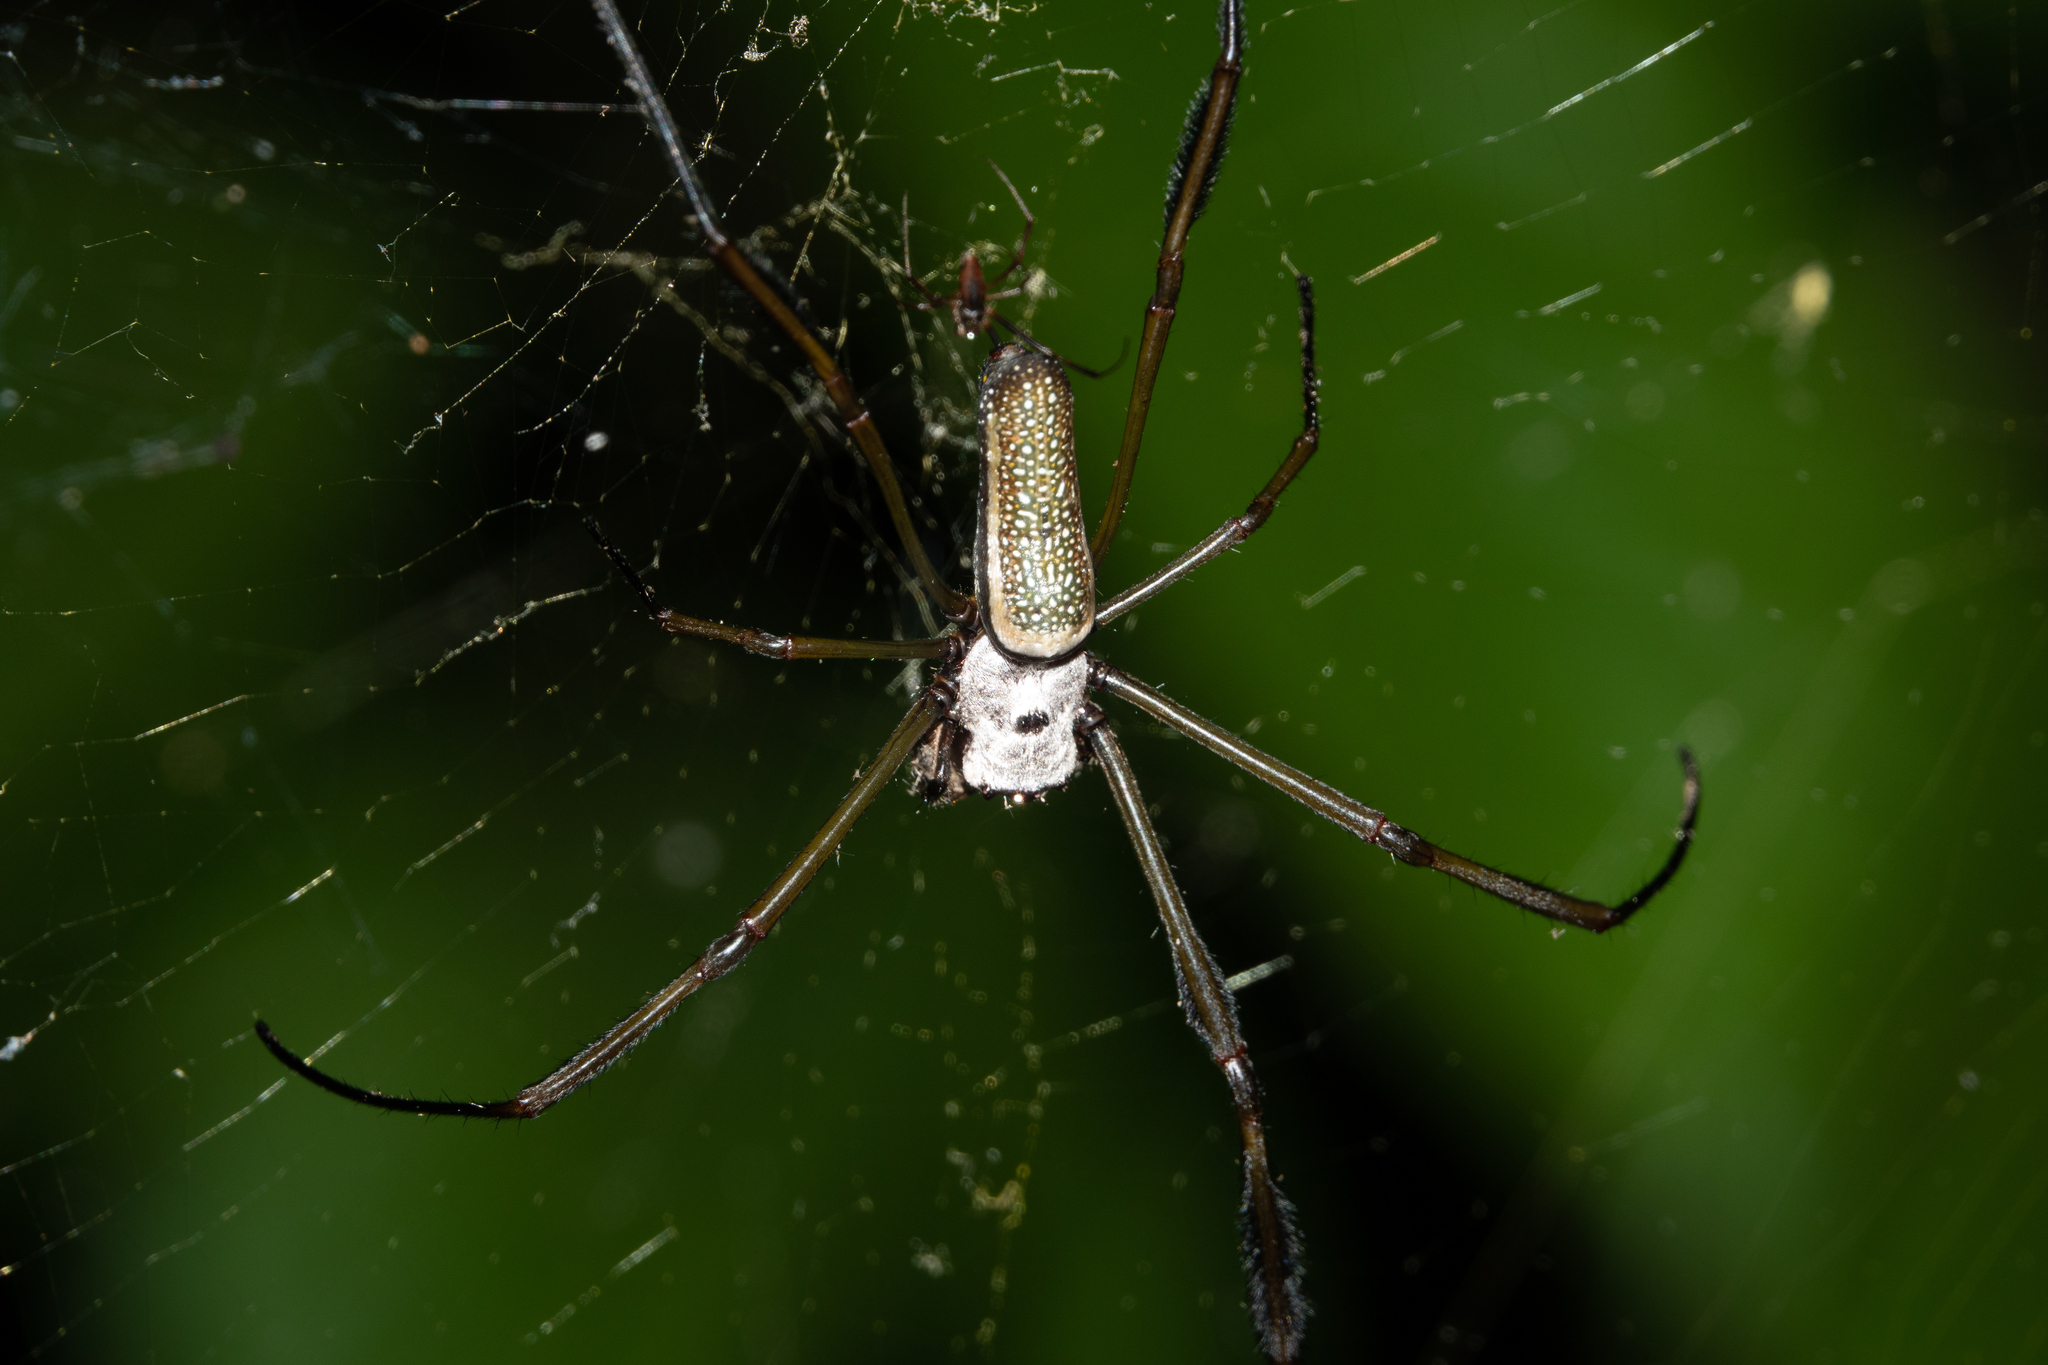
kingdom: Animalia
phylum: Arthropoda
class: Arachnida
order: Araneae
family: Araneidae
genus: Trichonephila
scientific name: Trichonephila clavipes
